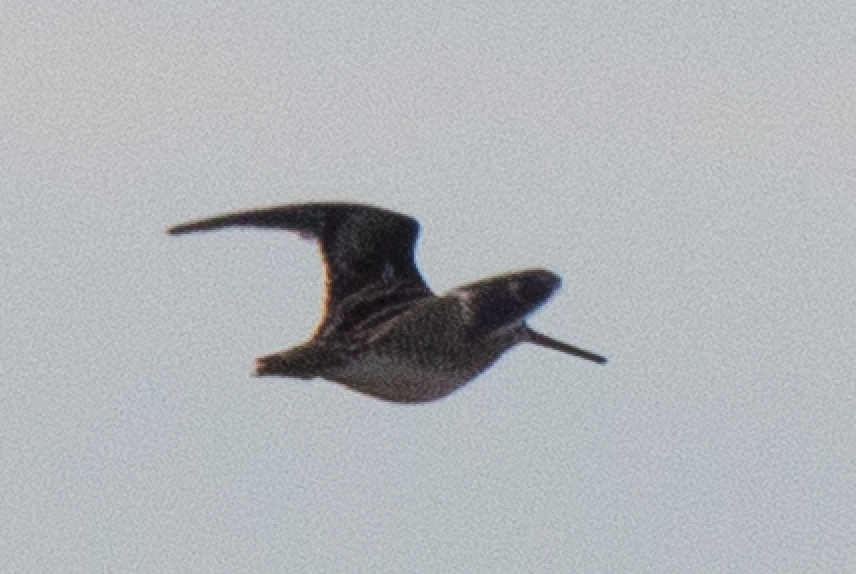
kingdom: Animalia
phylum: Chordata
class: Aves
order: Charadriiformes
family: Scolopacidae
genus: Gallinago
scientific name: Gallinago gallinago
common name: Common snipe
